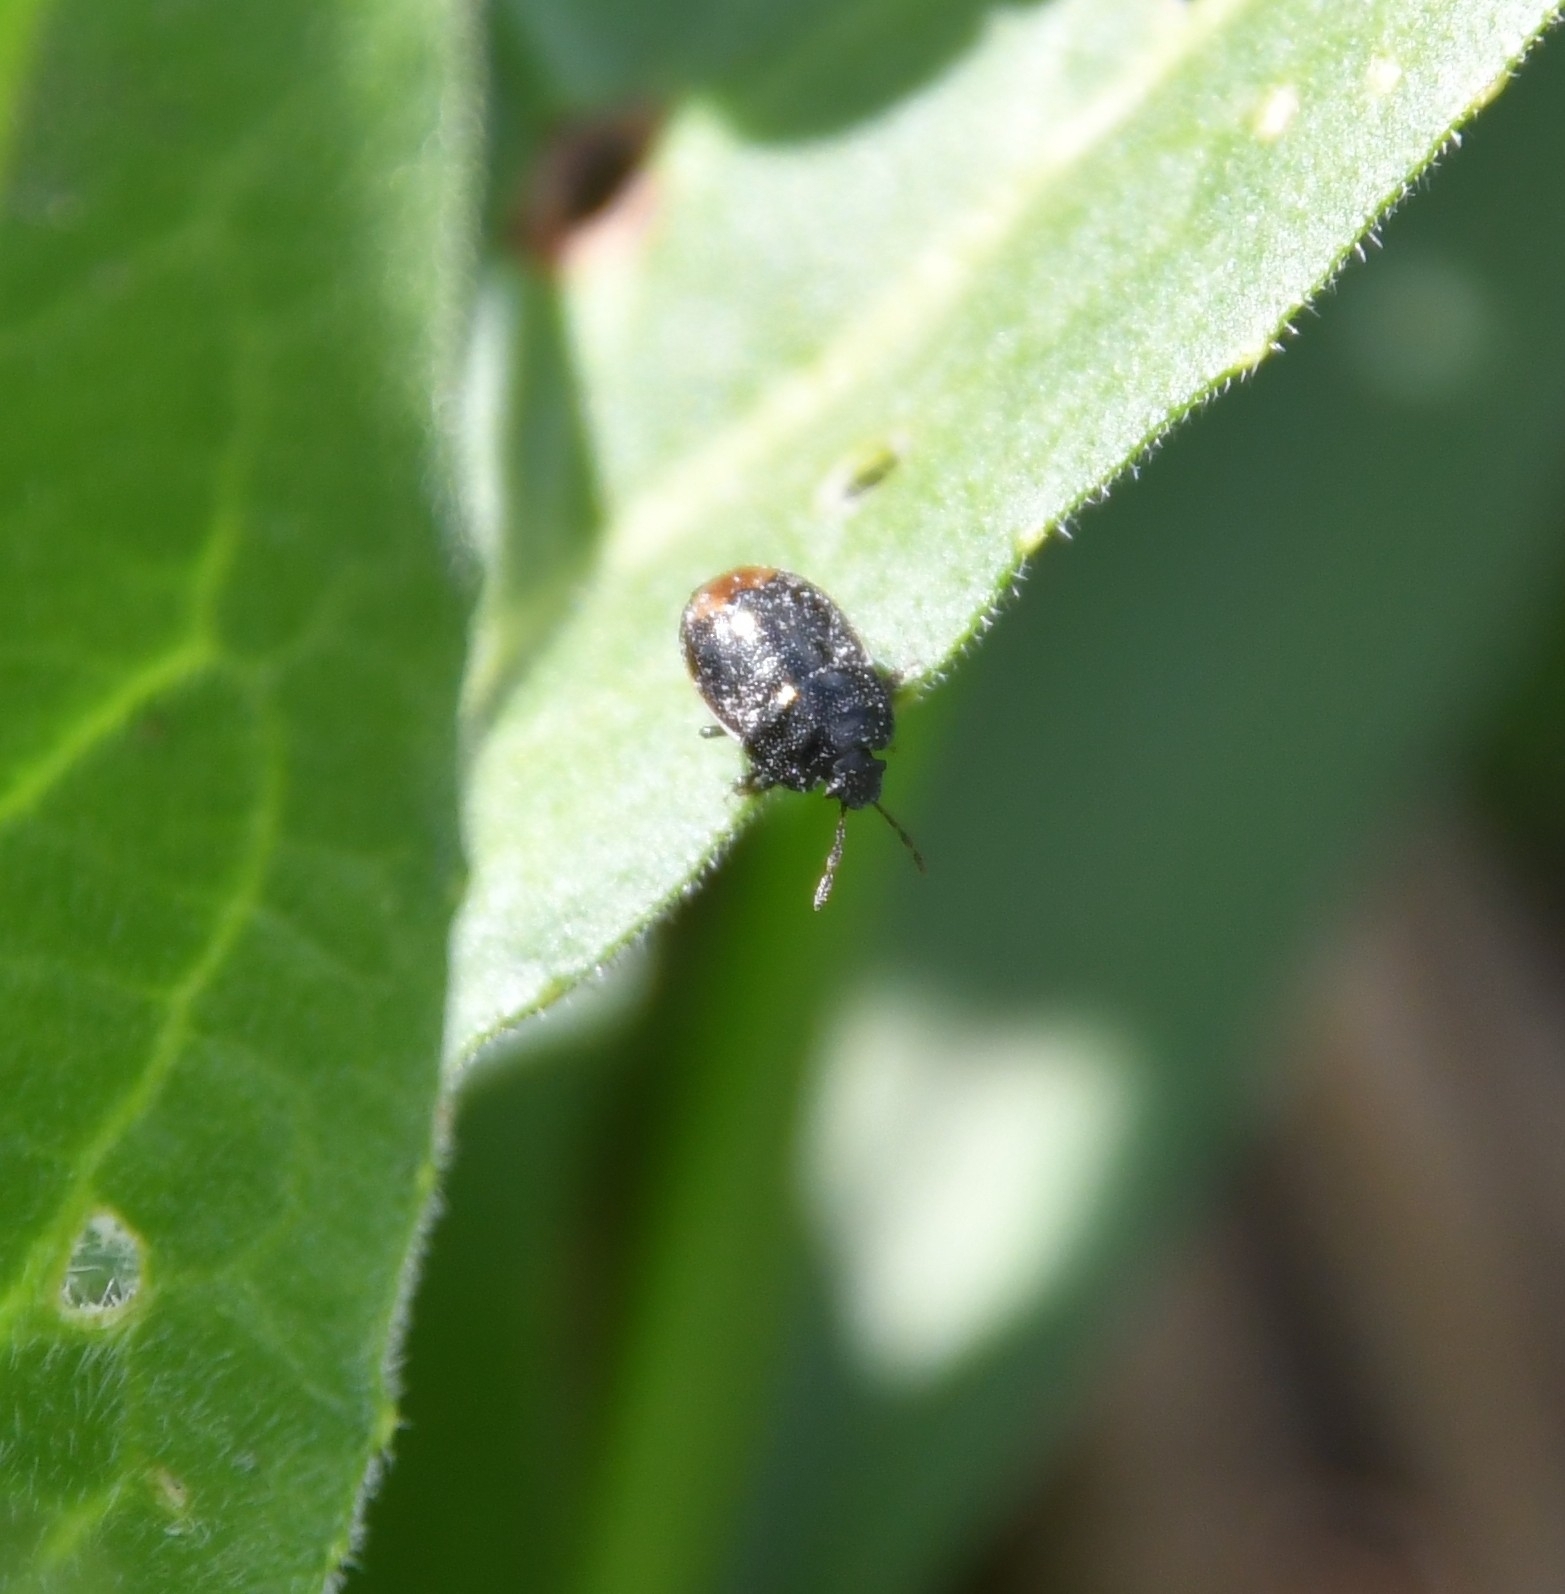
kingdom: Animalia
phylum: Arthropoda
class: Insecta
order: Hemiptera
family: Cydnidae
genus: Legnotus
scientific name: Legnotus limbosus
